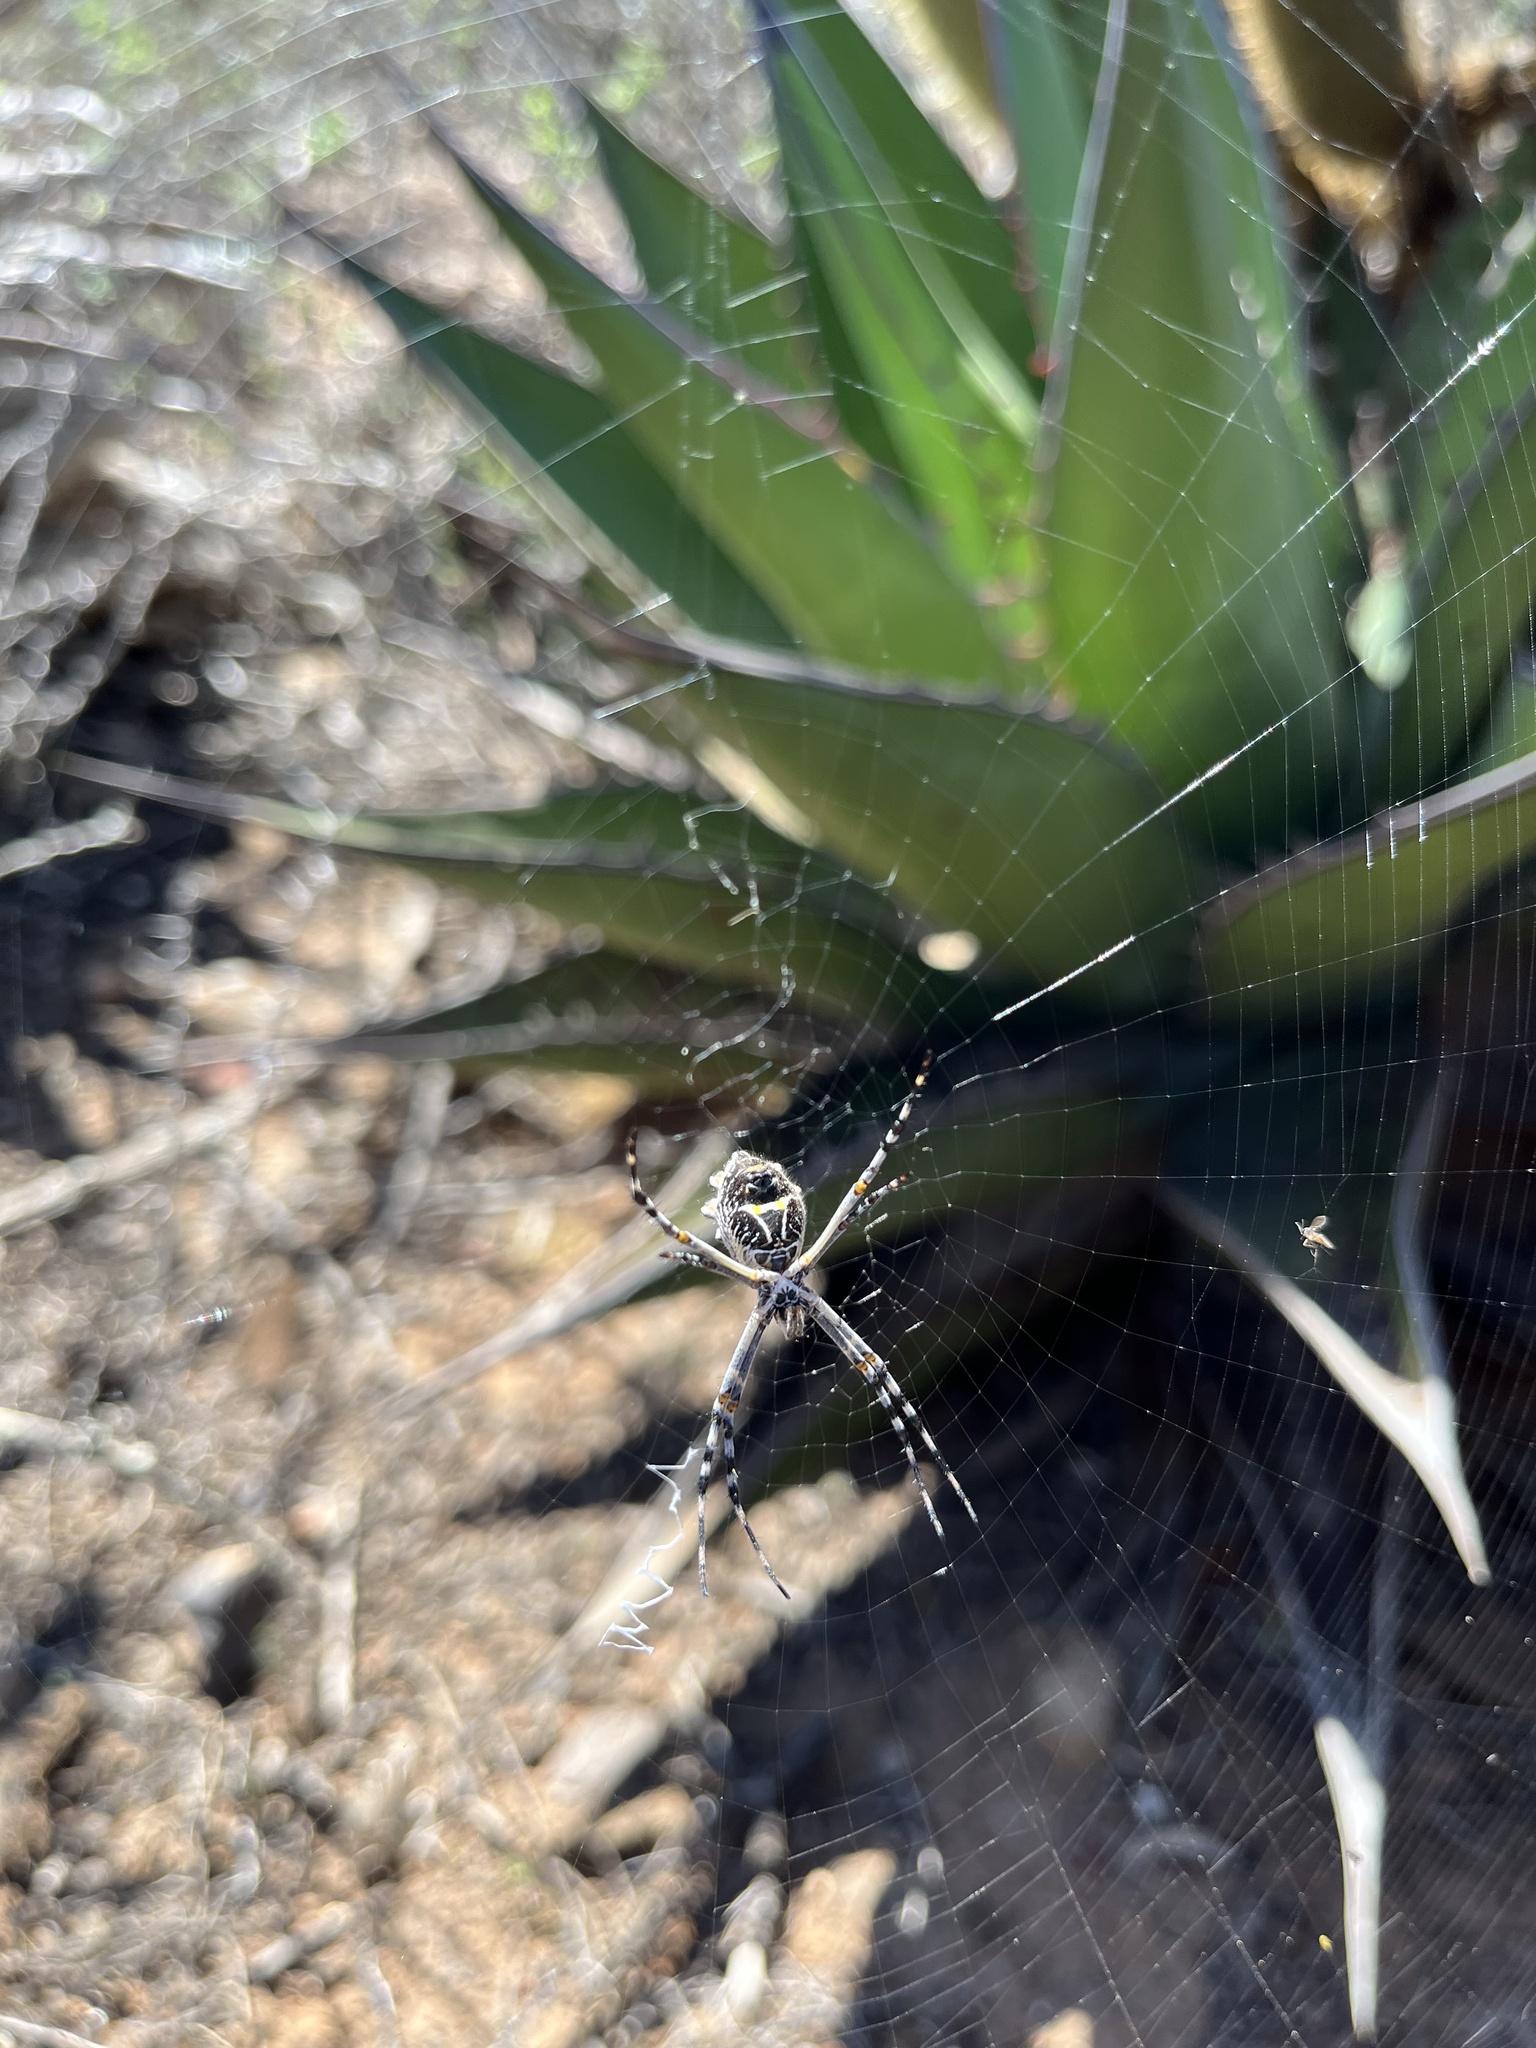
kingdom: Animalia
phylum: Arthropoda
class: Arachnida
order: Araneae
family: Araneidae
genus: Argiope
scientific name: Argiope argentata
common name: Orb weavers
